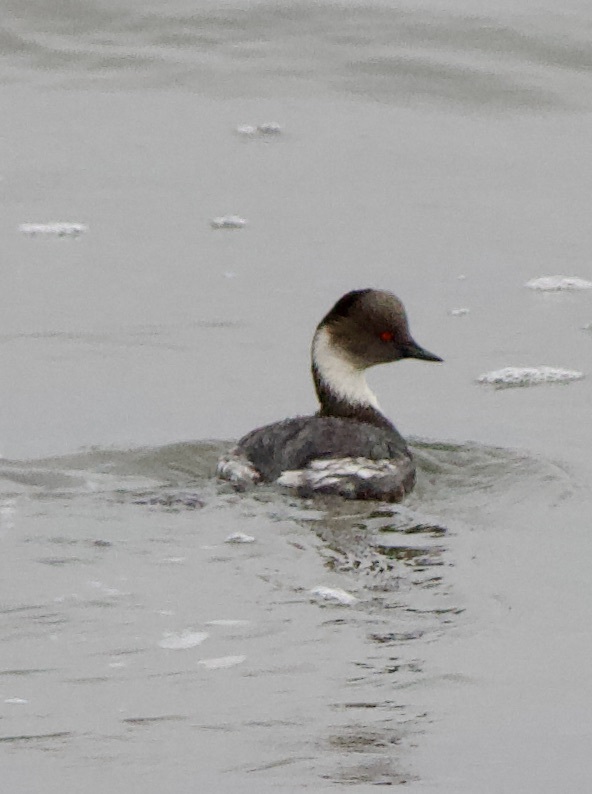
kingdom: Animalia
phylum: Chordata
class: Aves
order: Podicipediformes
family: Podicipedidae
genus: Podiceps
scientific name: Podiceps occipitalis
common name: Silvery grebe
